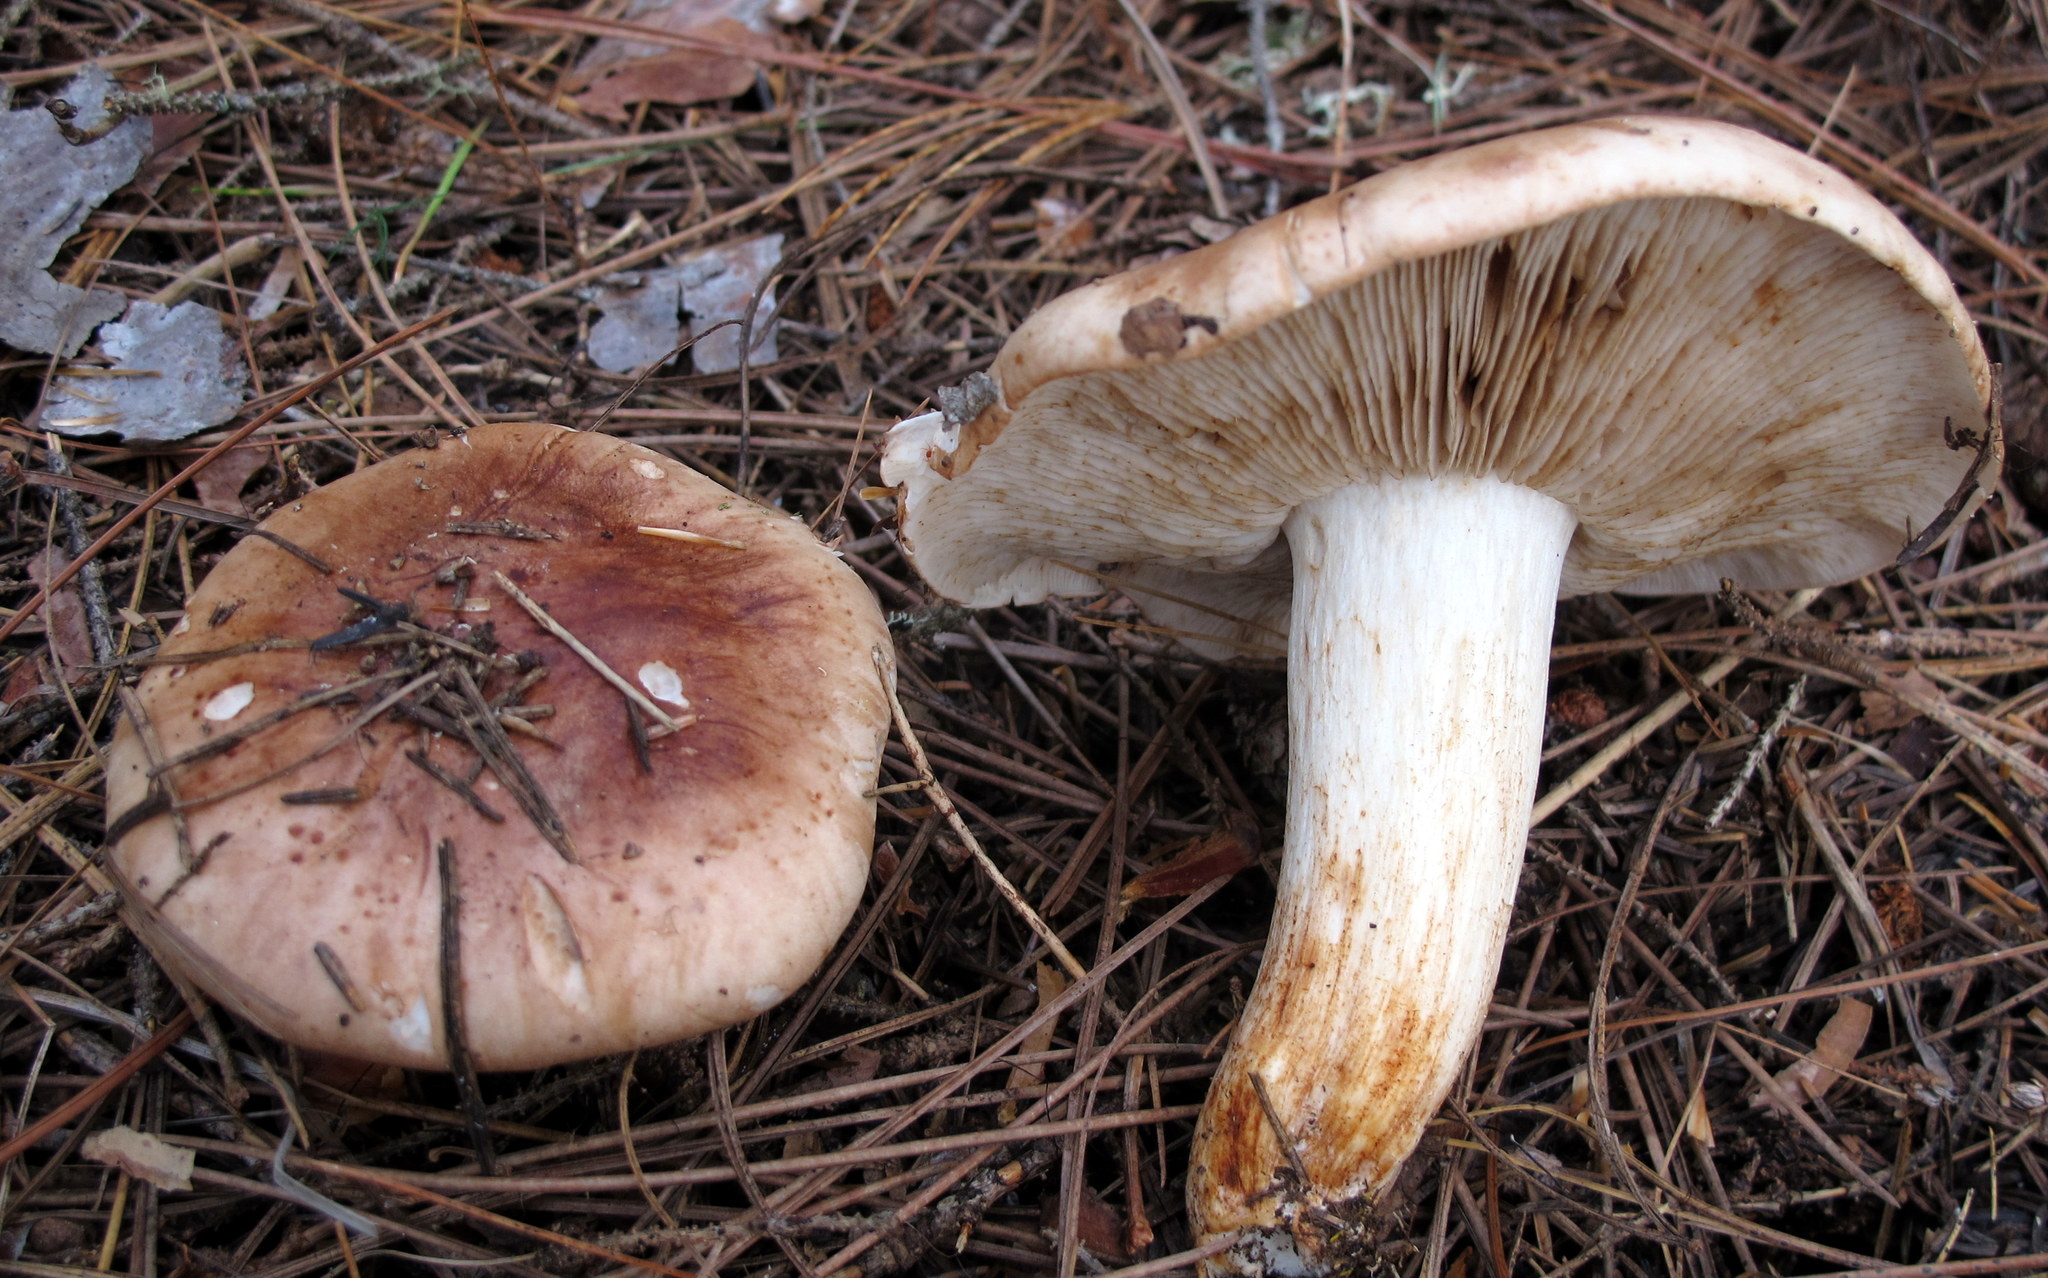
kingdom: Fungi
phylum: Basidiomycota
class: Agaricomycetes
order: Agaricales
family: Tricholomataceae
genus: Tricholoma
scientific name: Tricholoma fulvum
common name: Birch knight
